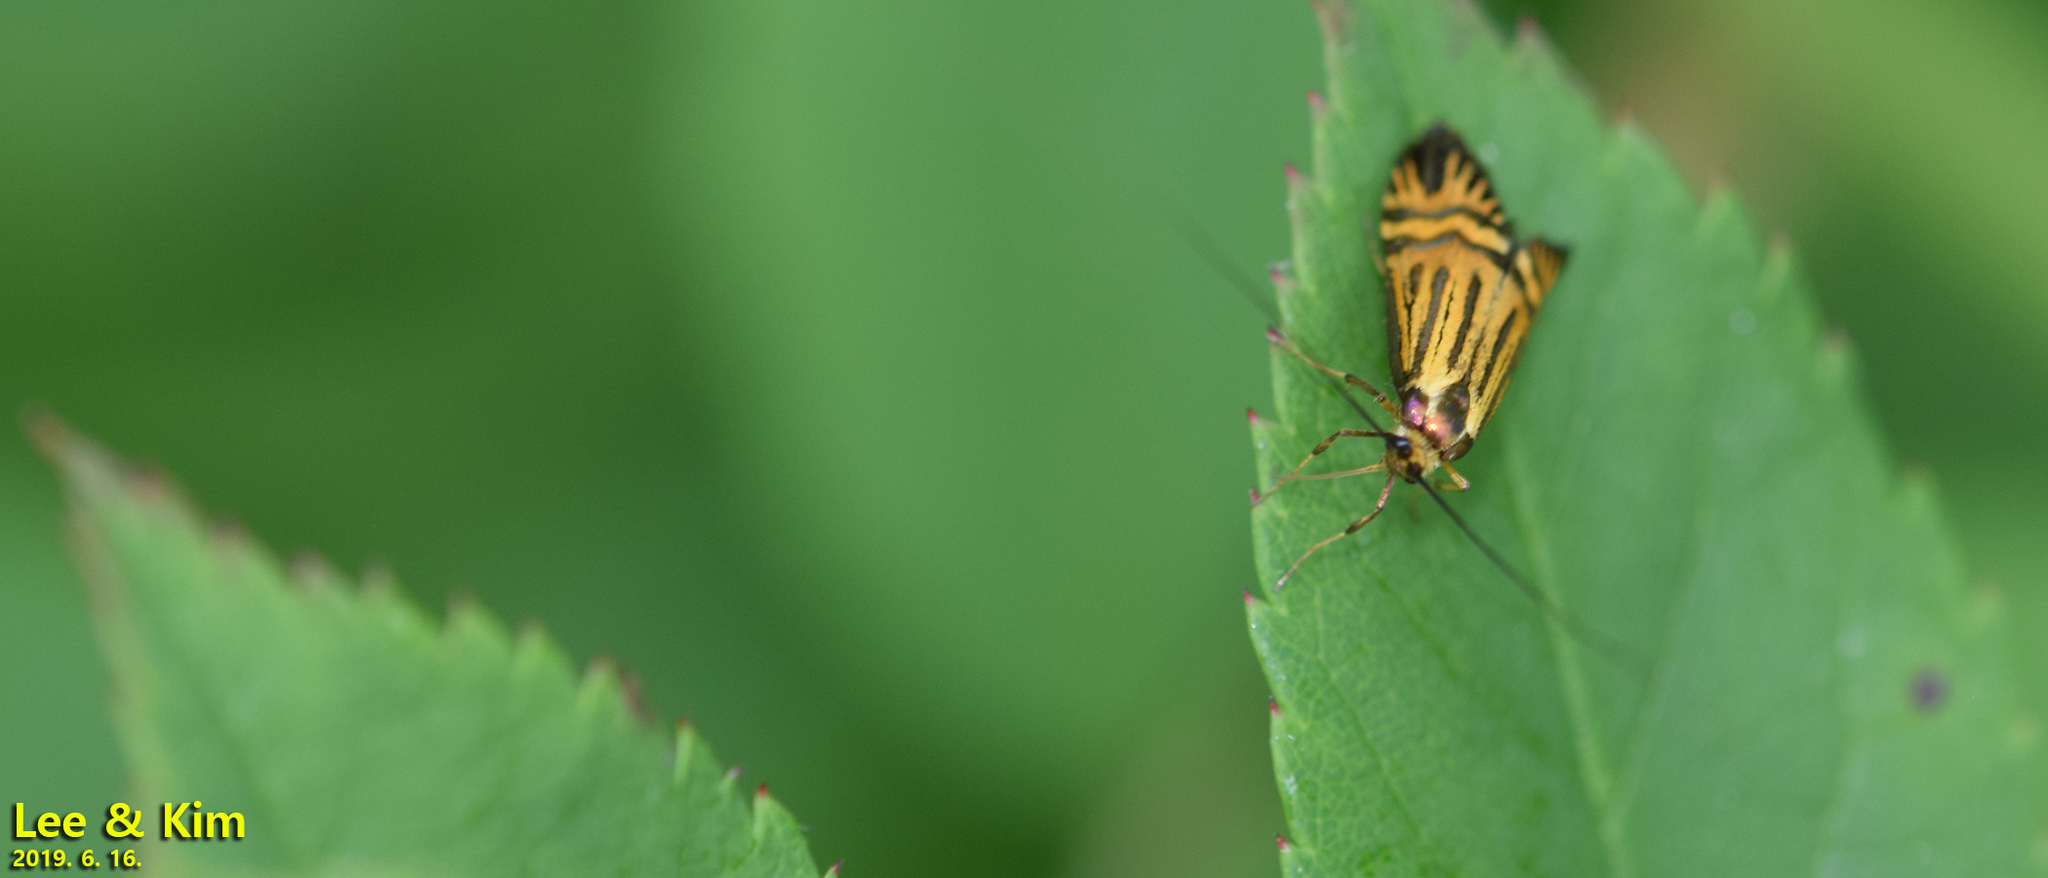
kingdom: Animalia
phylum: Arthropoda
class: Insecta
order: Lepidoptera
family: Adelidae
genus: Nemophora
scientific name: Nemophora chalybeella
